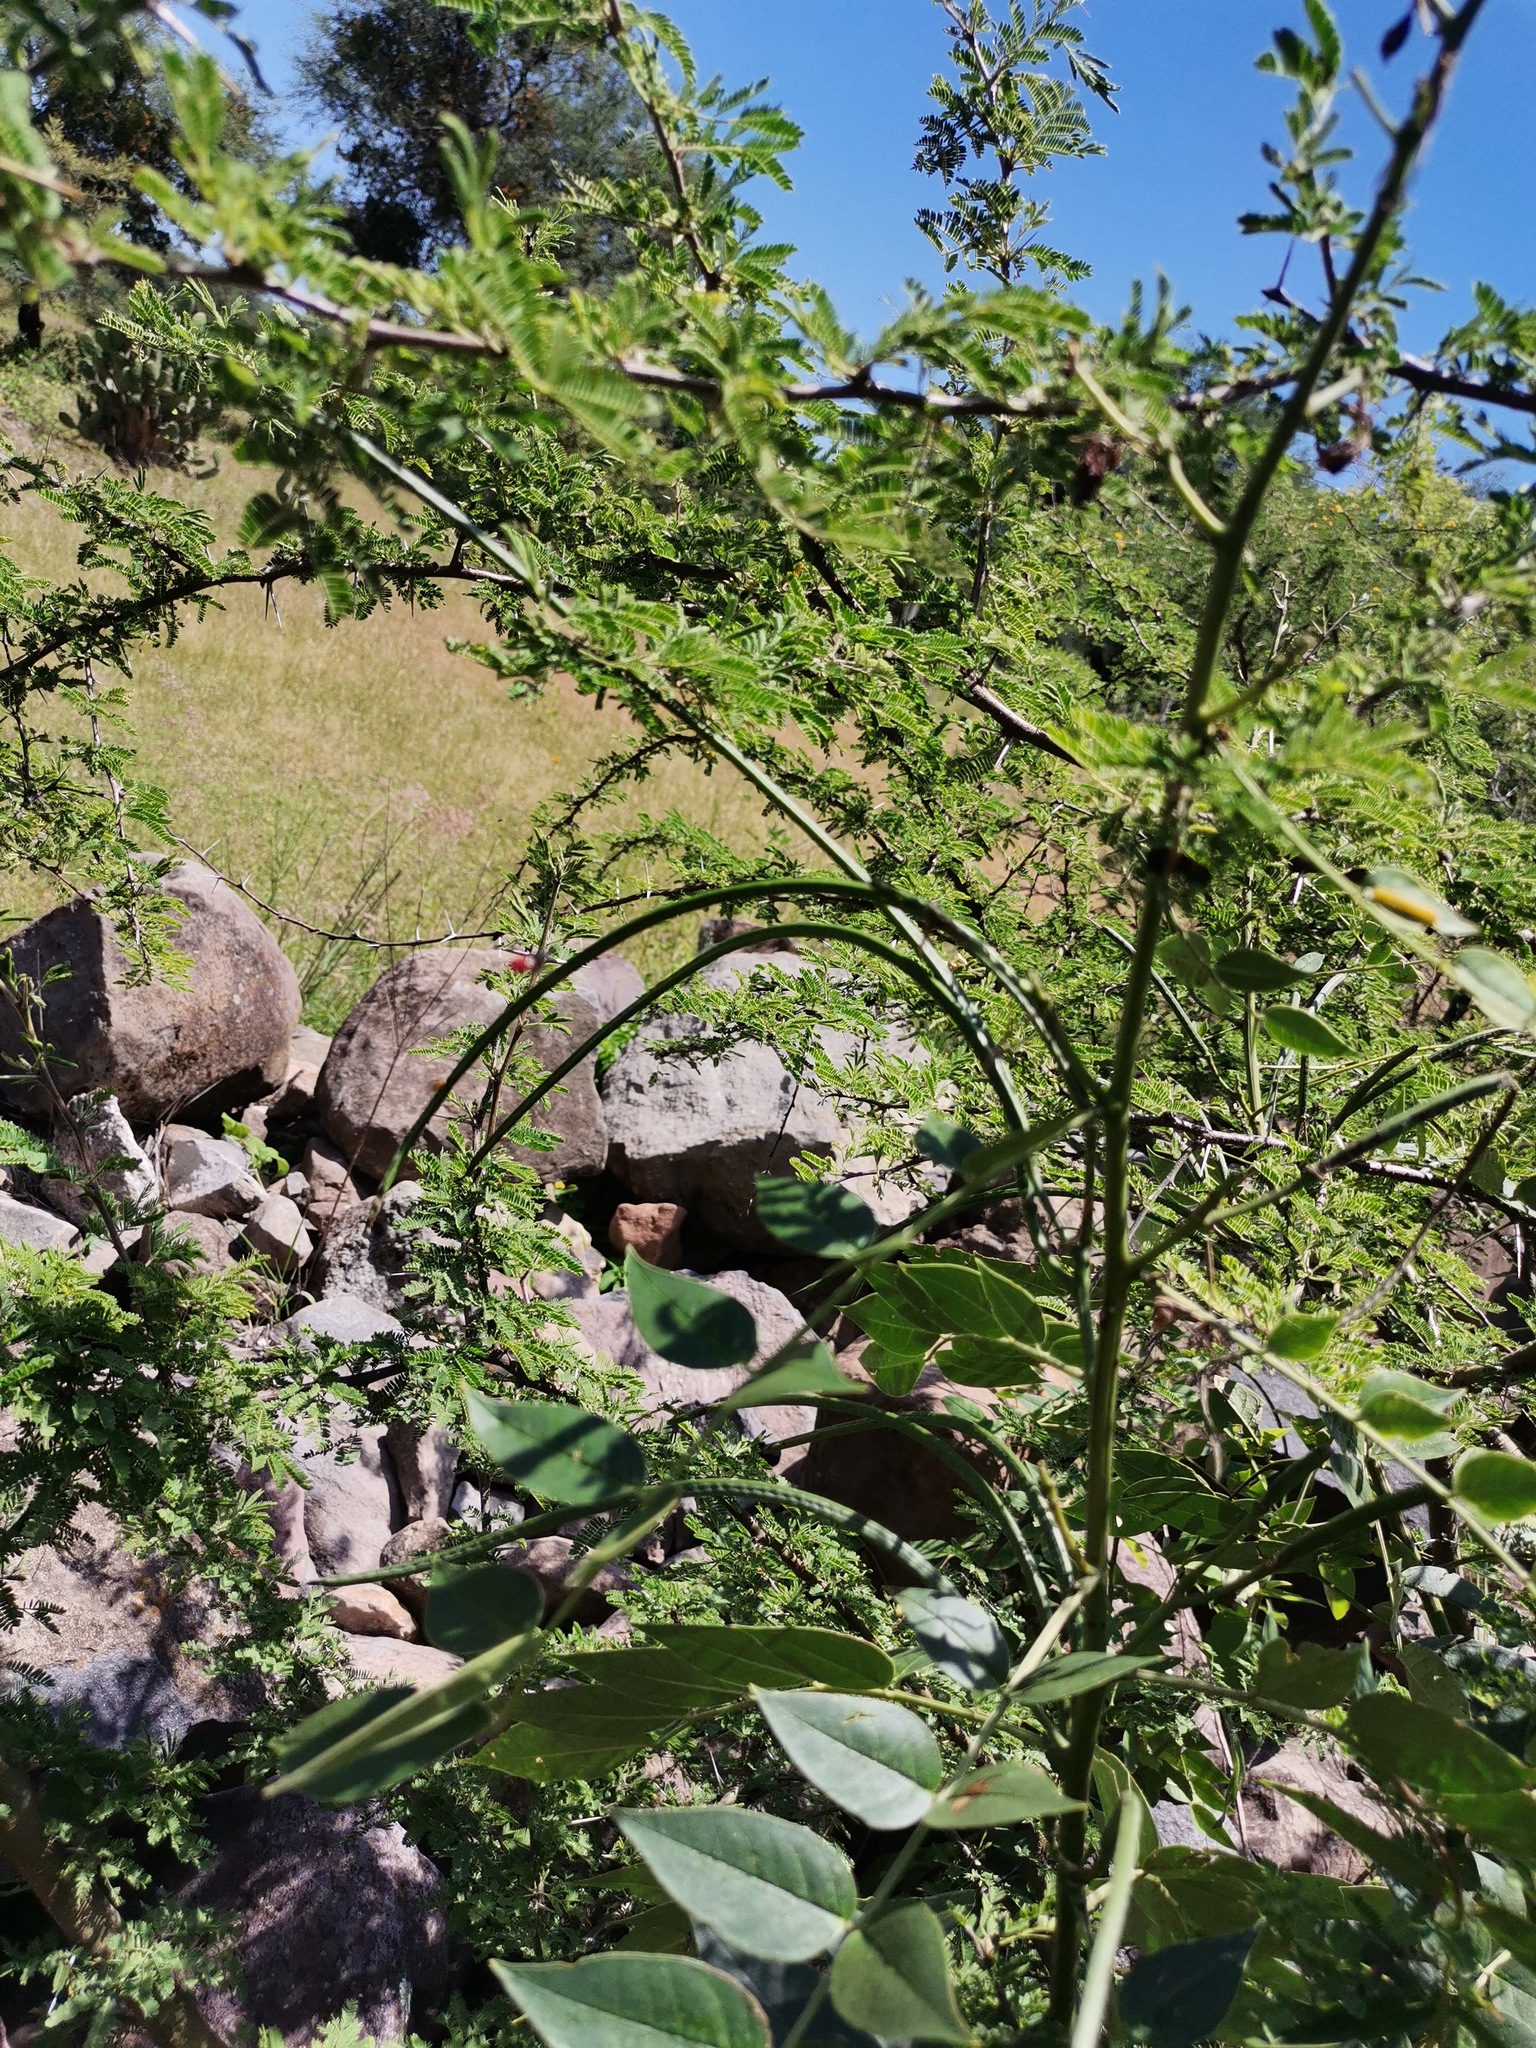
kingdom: Plantae
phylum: Tracheophyta
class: Magnoliopsida
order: Fabales
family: Fabaceae
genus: Vachellia
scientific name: Vachellia farnesiana
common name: Sweet acacia
